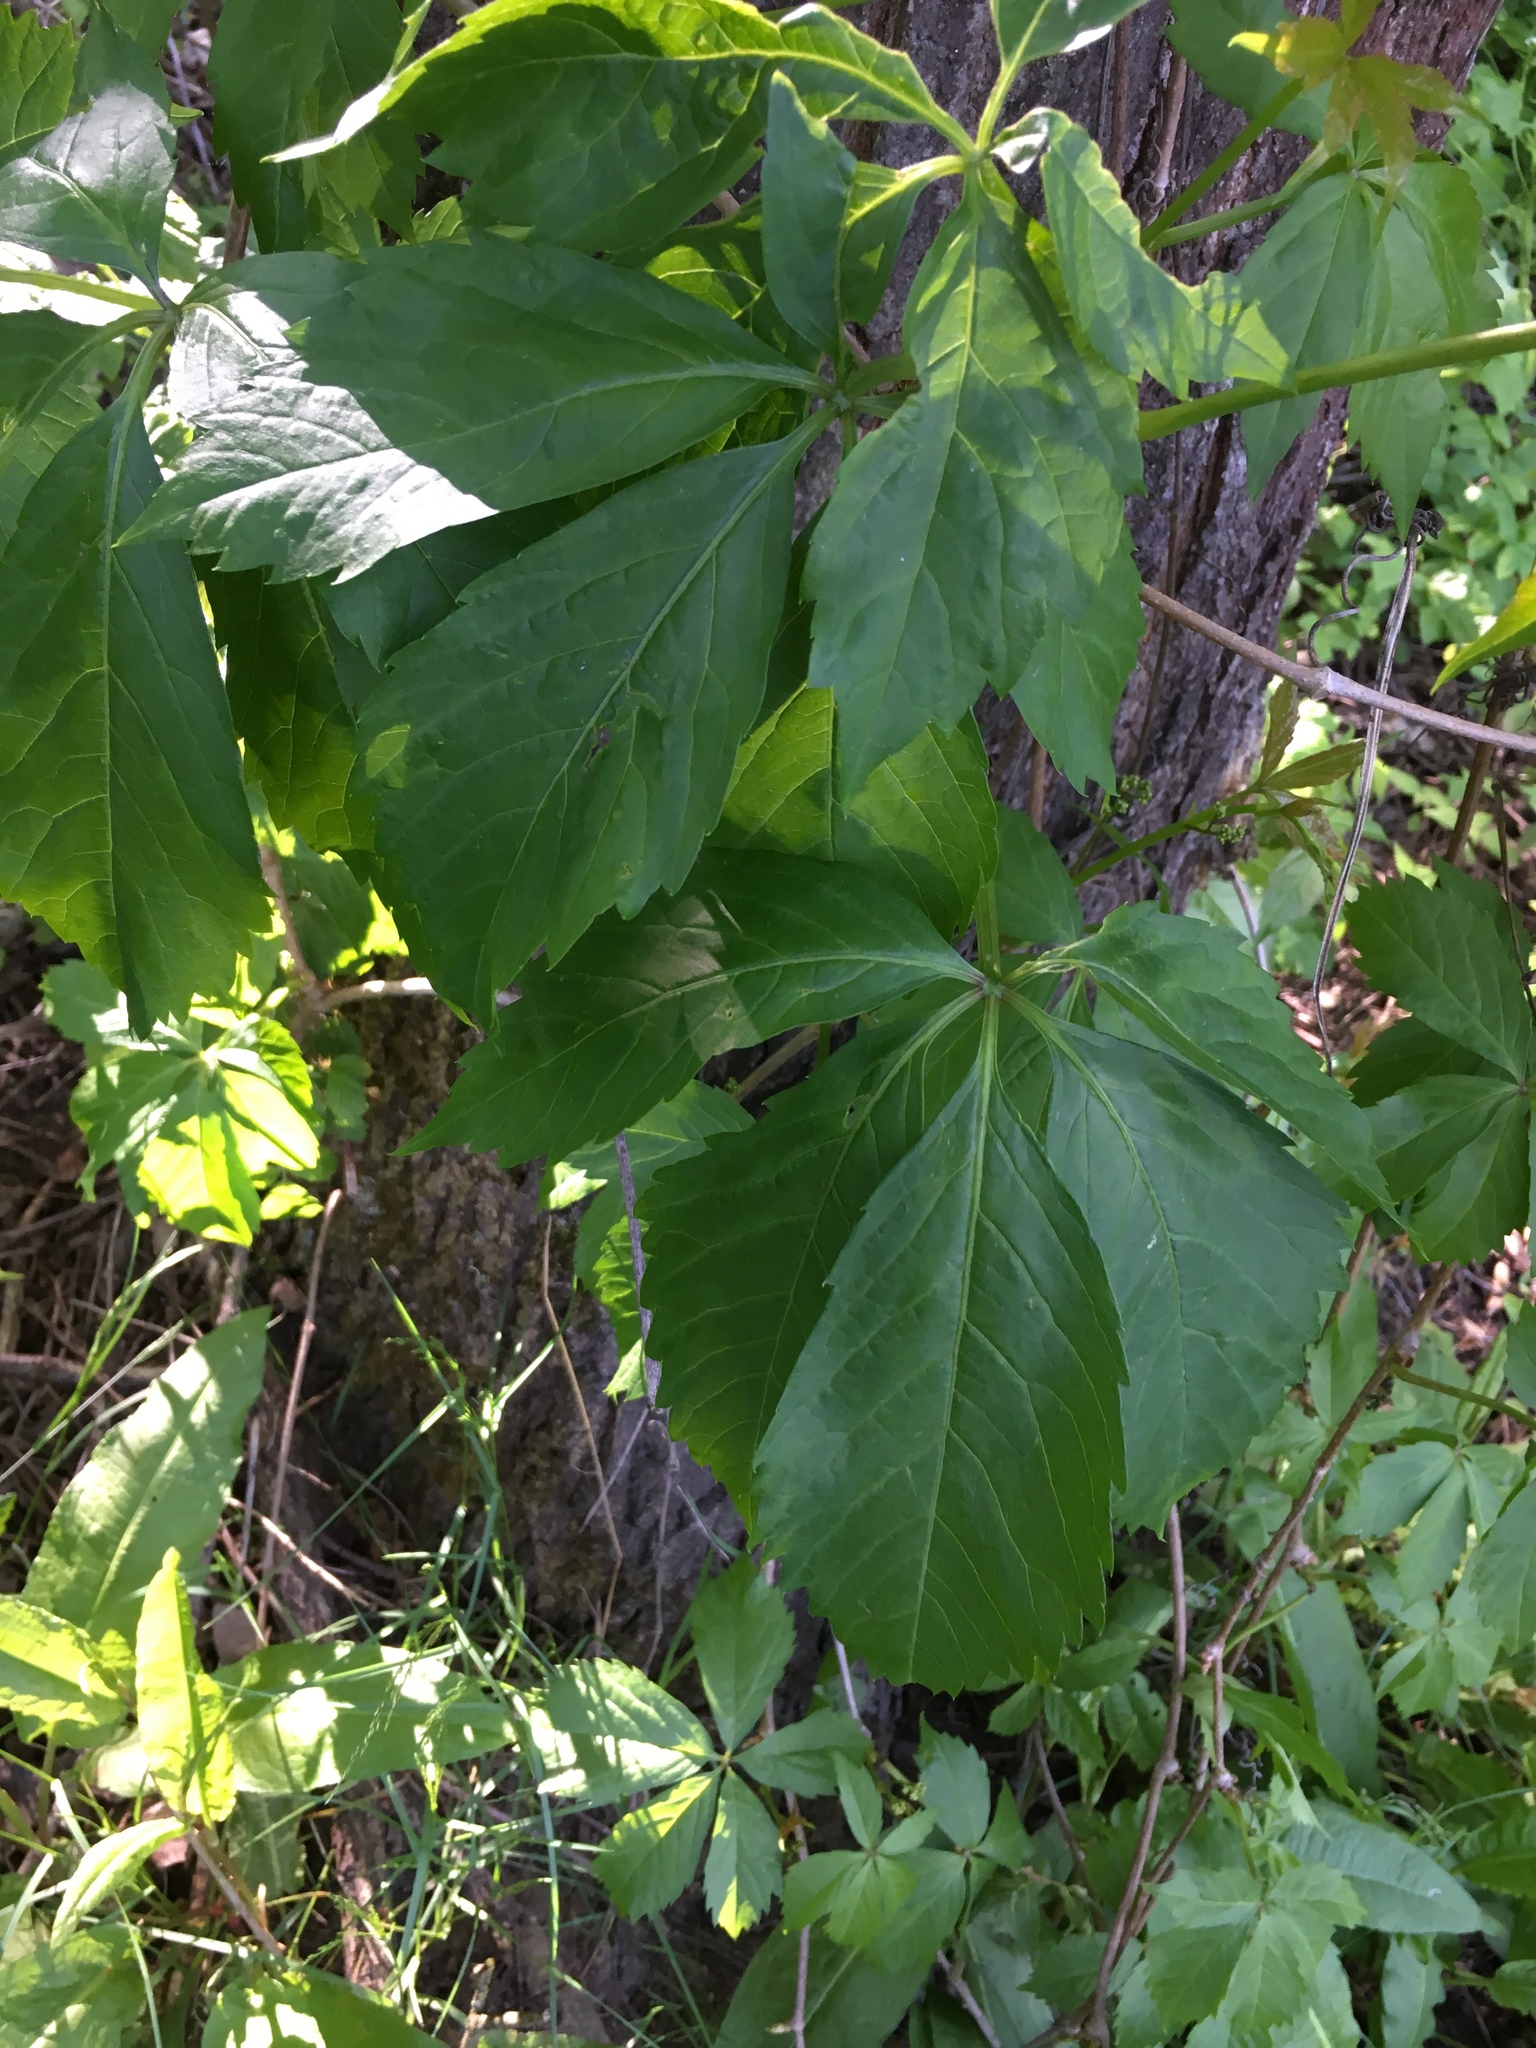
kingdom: Plantae
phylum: Tracheophyta
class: Magnoliopsida
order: Vitales
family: Vitaceae
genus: Parthenocissus
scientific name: Parthenocissus inserta
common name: False virginia-creeper
